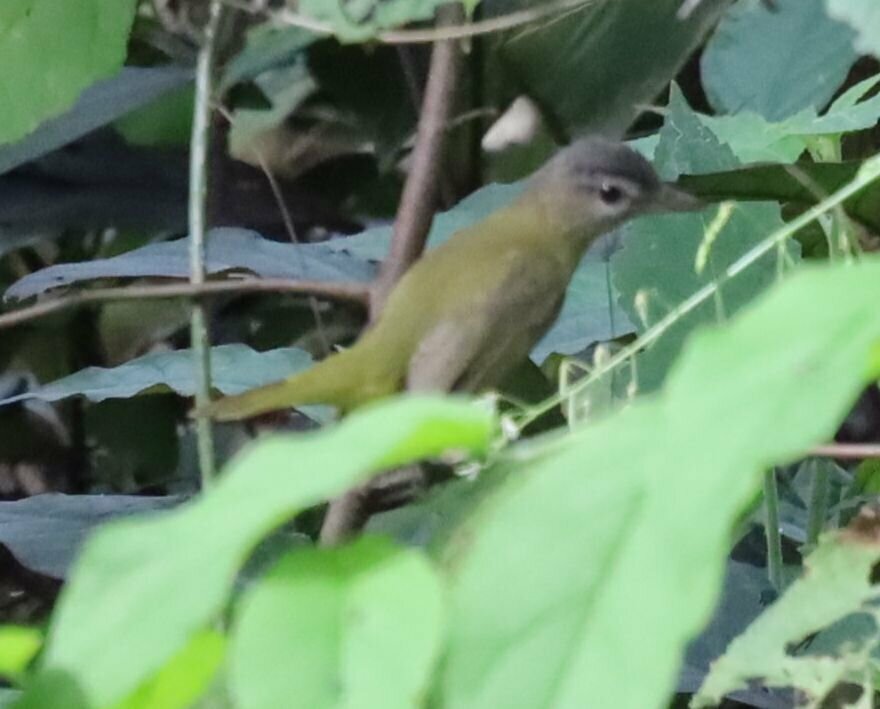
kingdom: Animalia
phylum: Chordata
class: Aves
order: Passeriformes
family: Vireonidae
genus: Vireo
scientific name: Vireo flavoviridis
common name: Yellow-green vireo
